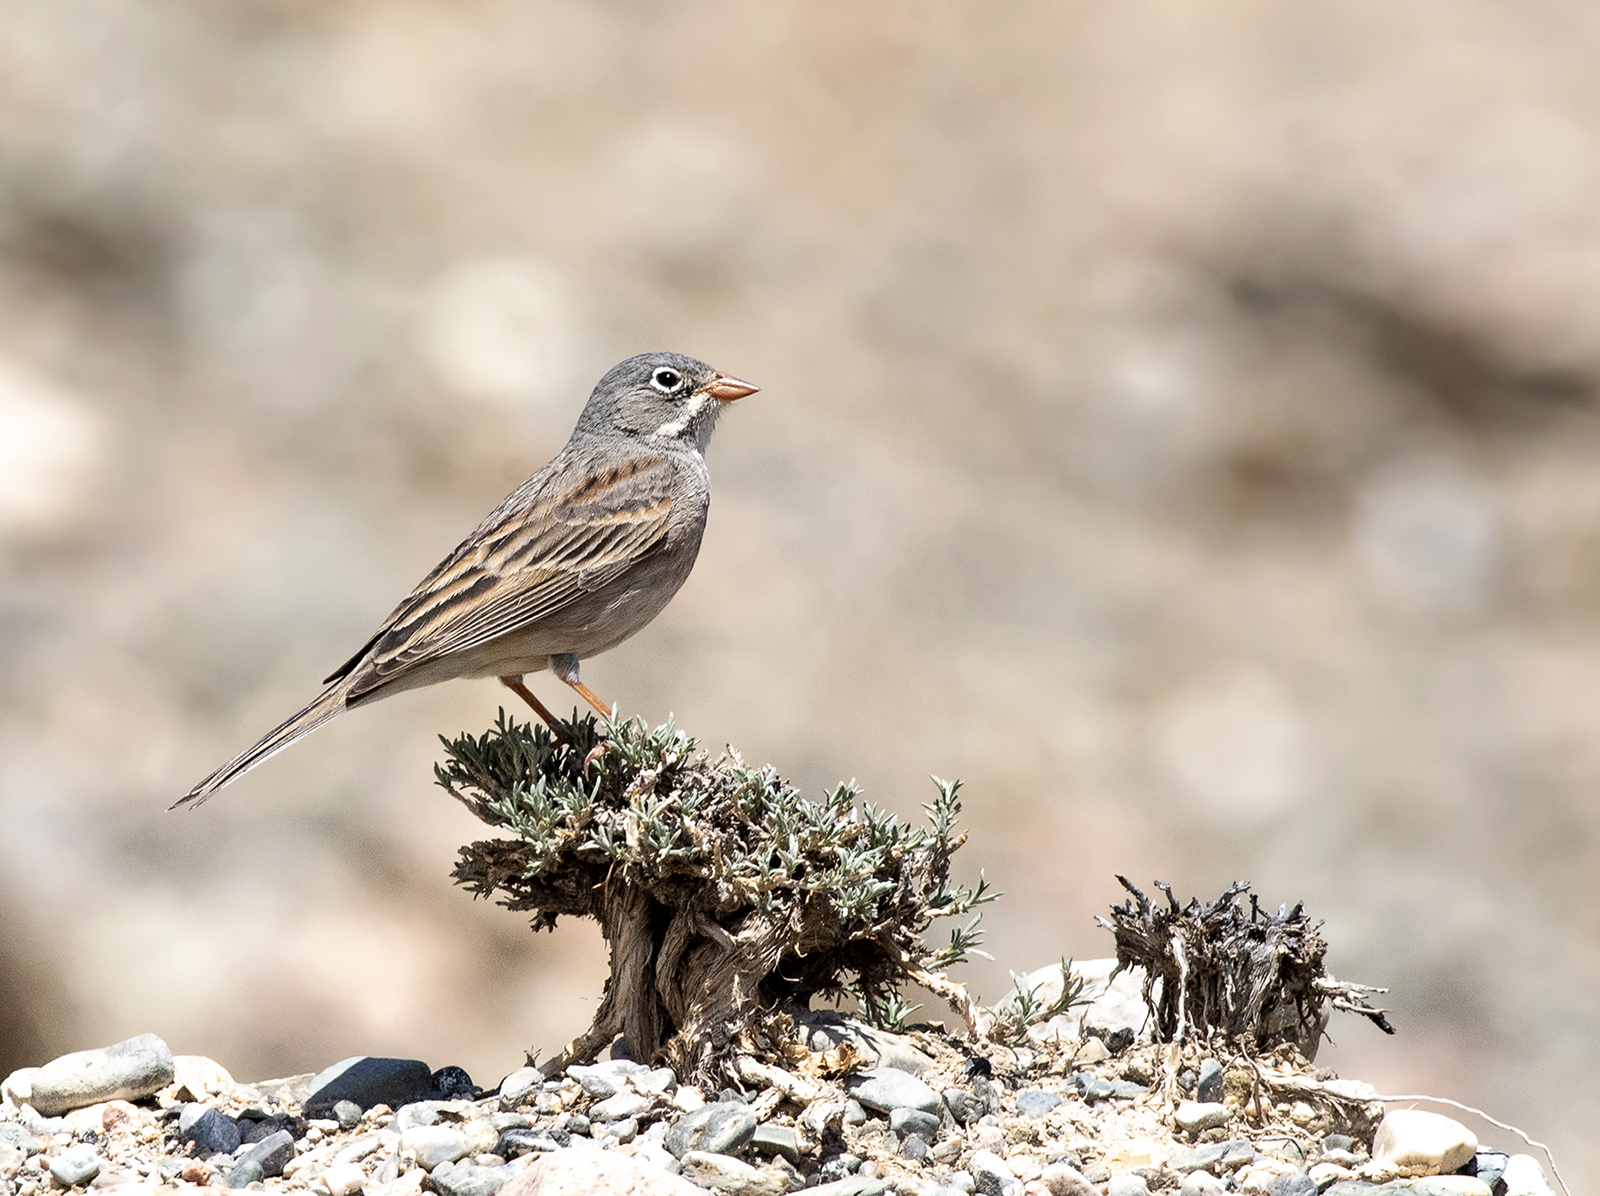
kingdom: Animalia
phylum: Chordata
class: Aves
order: Passeriformes
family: Emberizidae
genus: Emberiza
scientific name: Emberiza buchanani
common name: Grey-necked bunting
